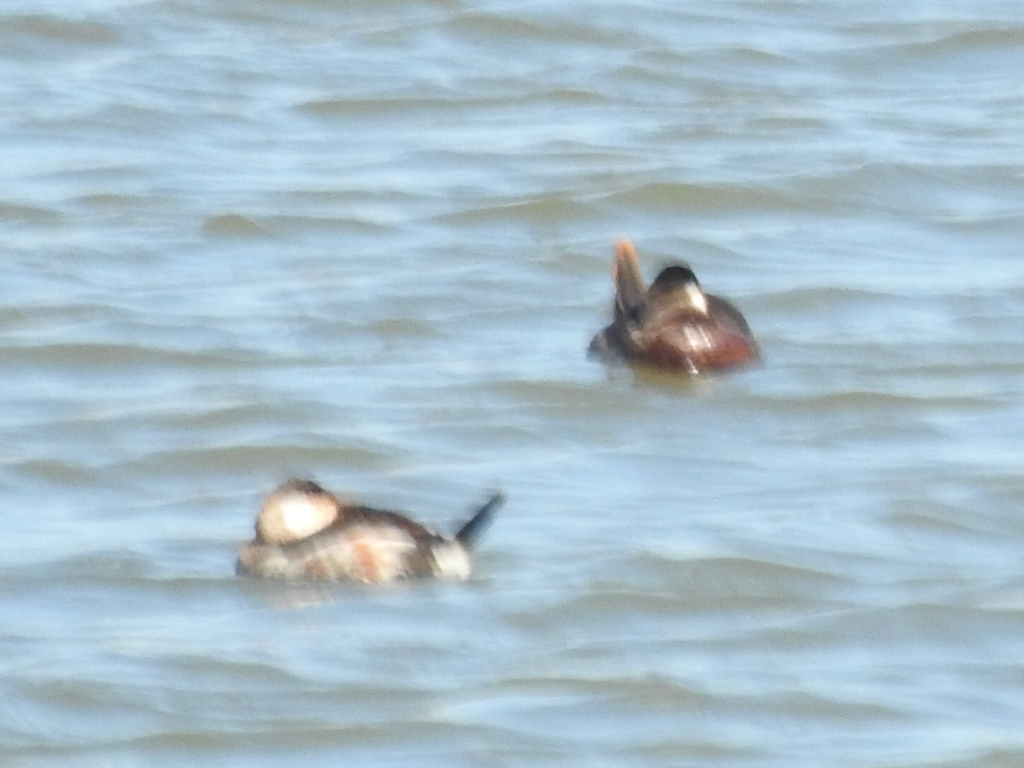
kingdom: Animalia
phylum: Chordata
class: Aves
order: Anseriformes
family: Anatidae
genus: Oxyura
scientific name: Oxyura jamaicensis
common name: Ruddy duck
